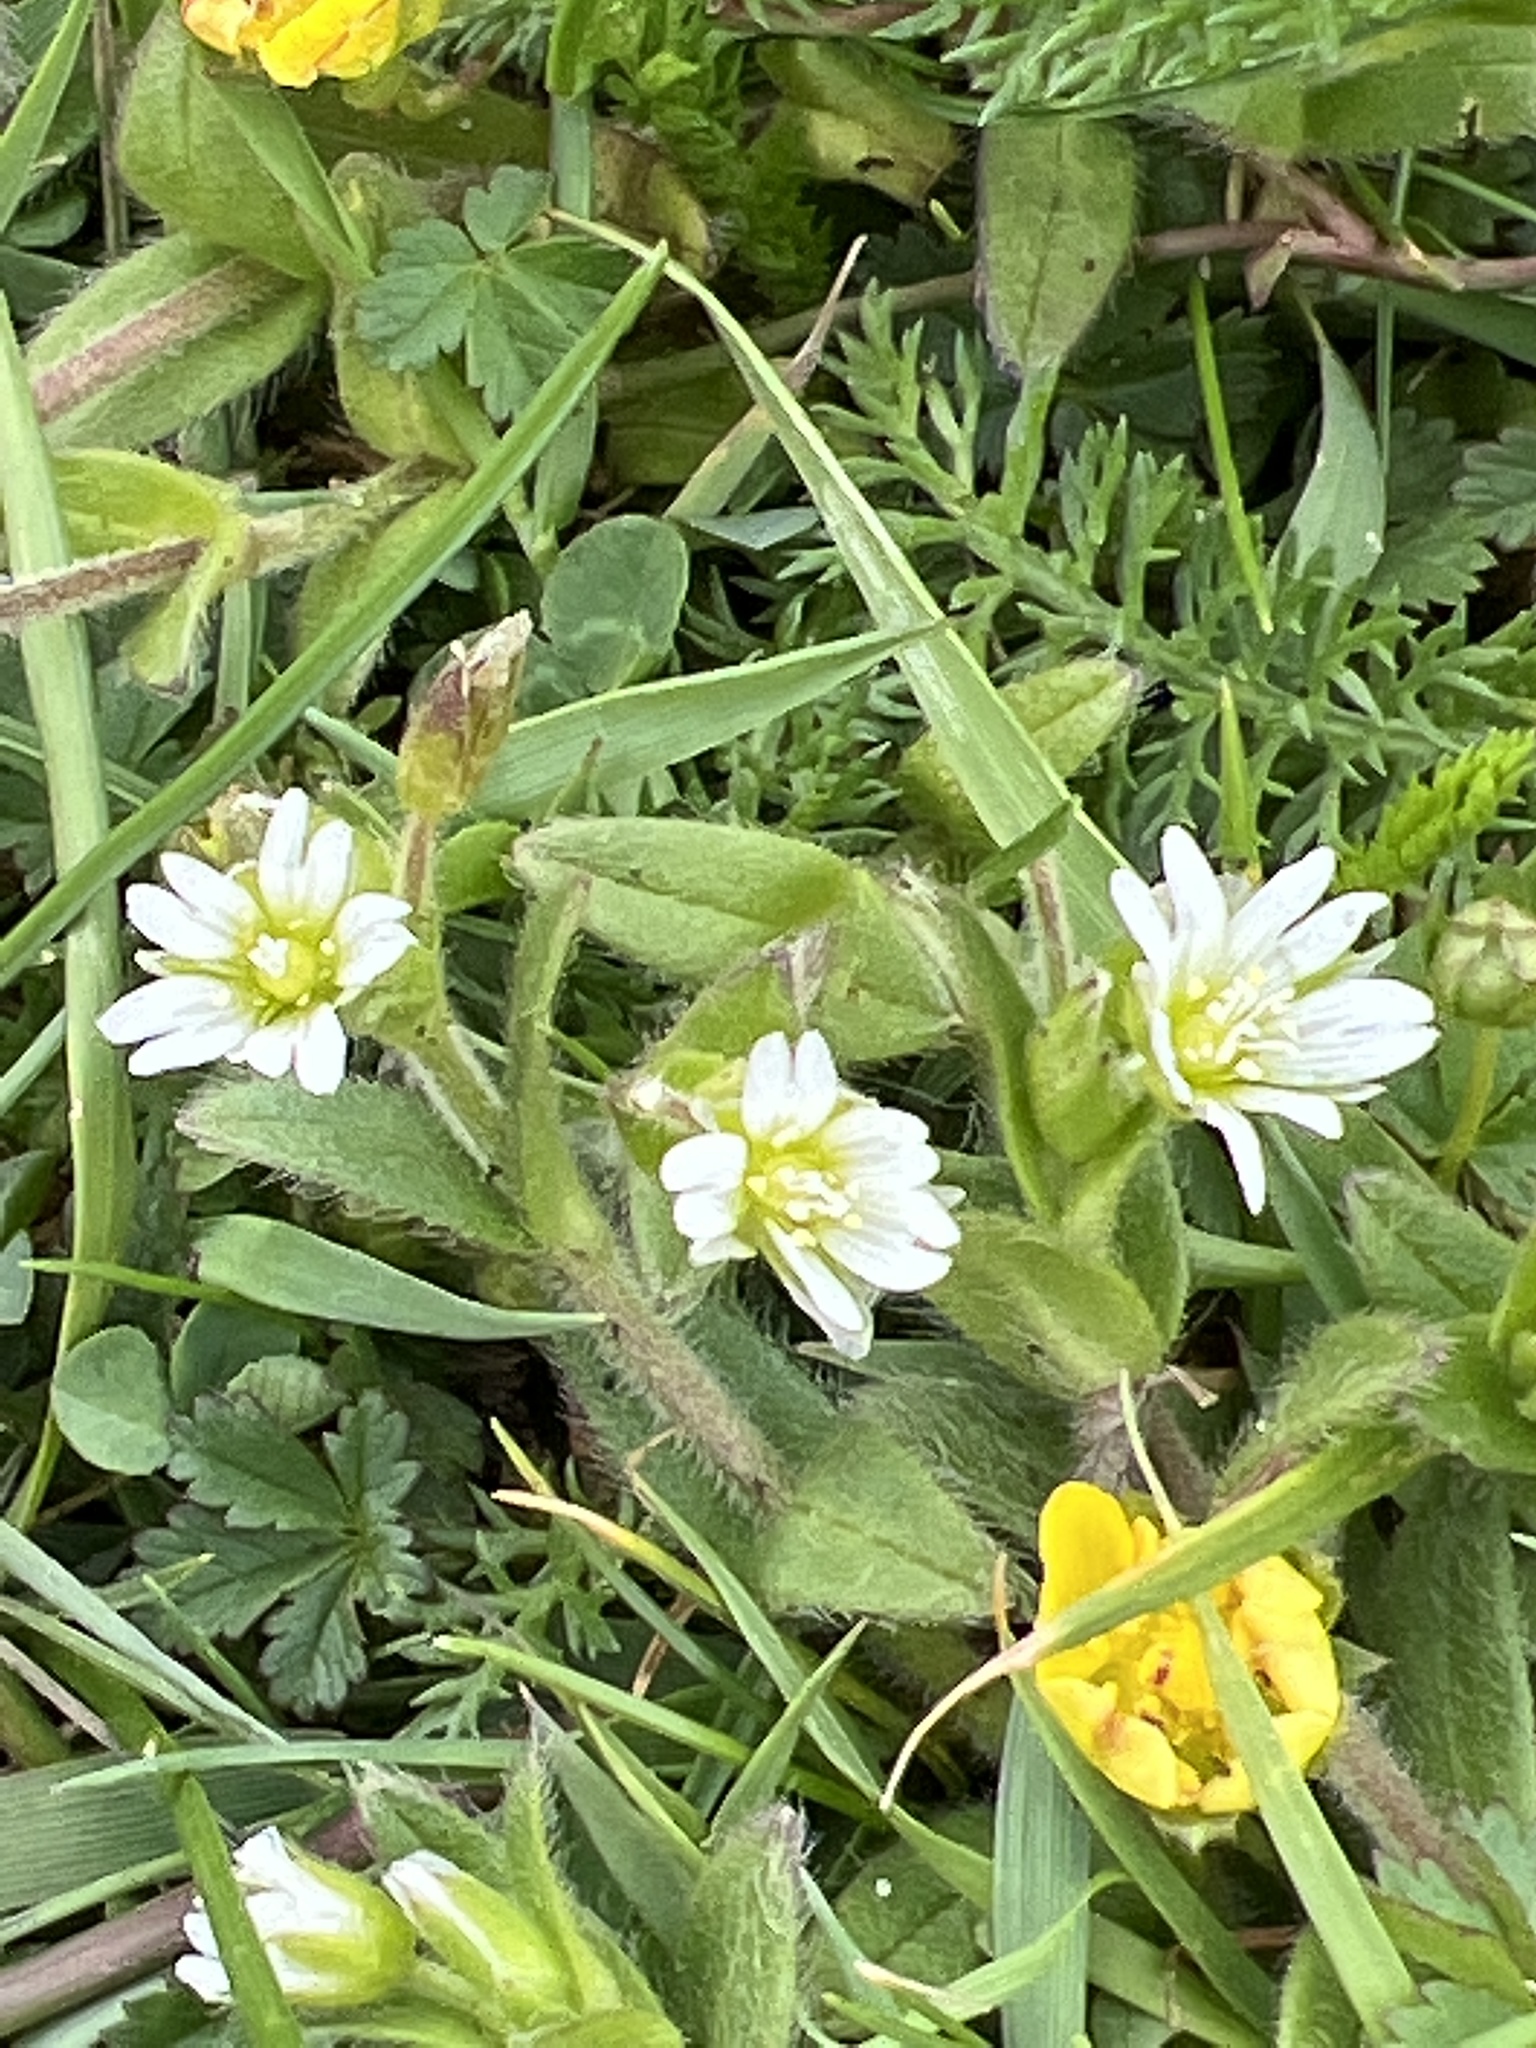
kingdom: Plantae
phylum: Tracheophyta
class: Magnoliopsida
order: Caryophyllales
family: Caryophyllaceae
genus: Cerastium
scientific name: Cerastium fontanum
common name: Common mouse-ear
